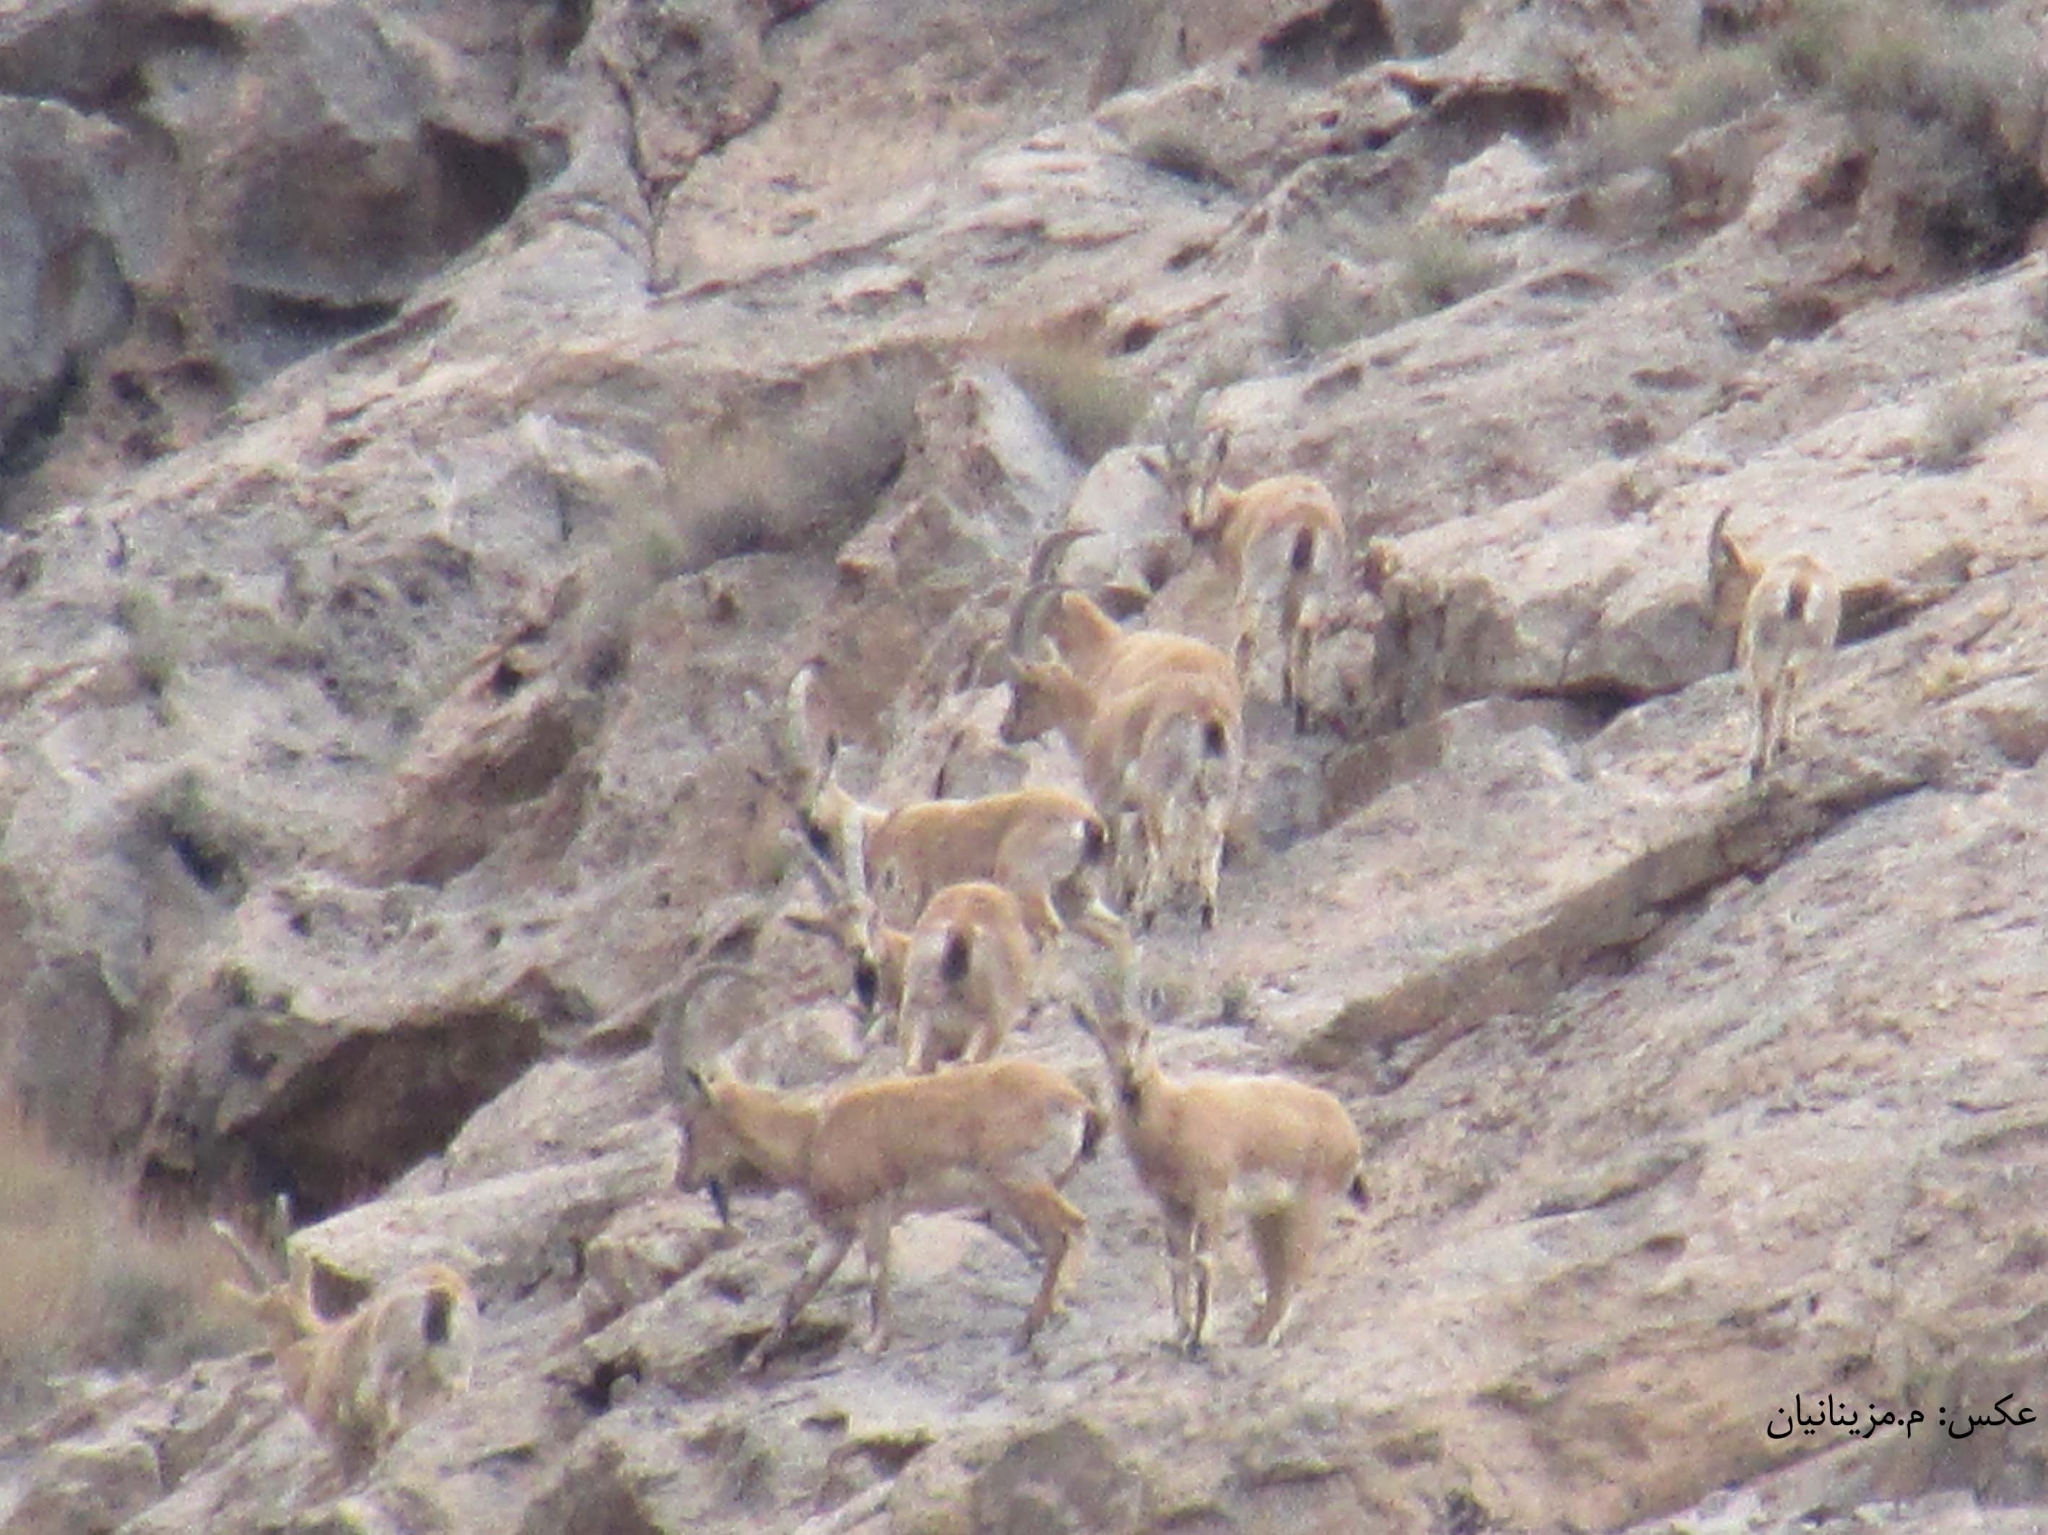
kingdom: Animalia
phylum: Chordata
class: Mammalia
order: Artiodactyla
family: Bovidae
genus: Capra
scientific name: Capra hircus
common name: Domestic goat
